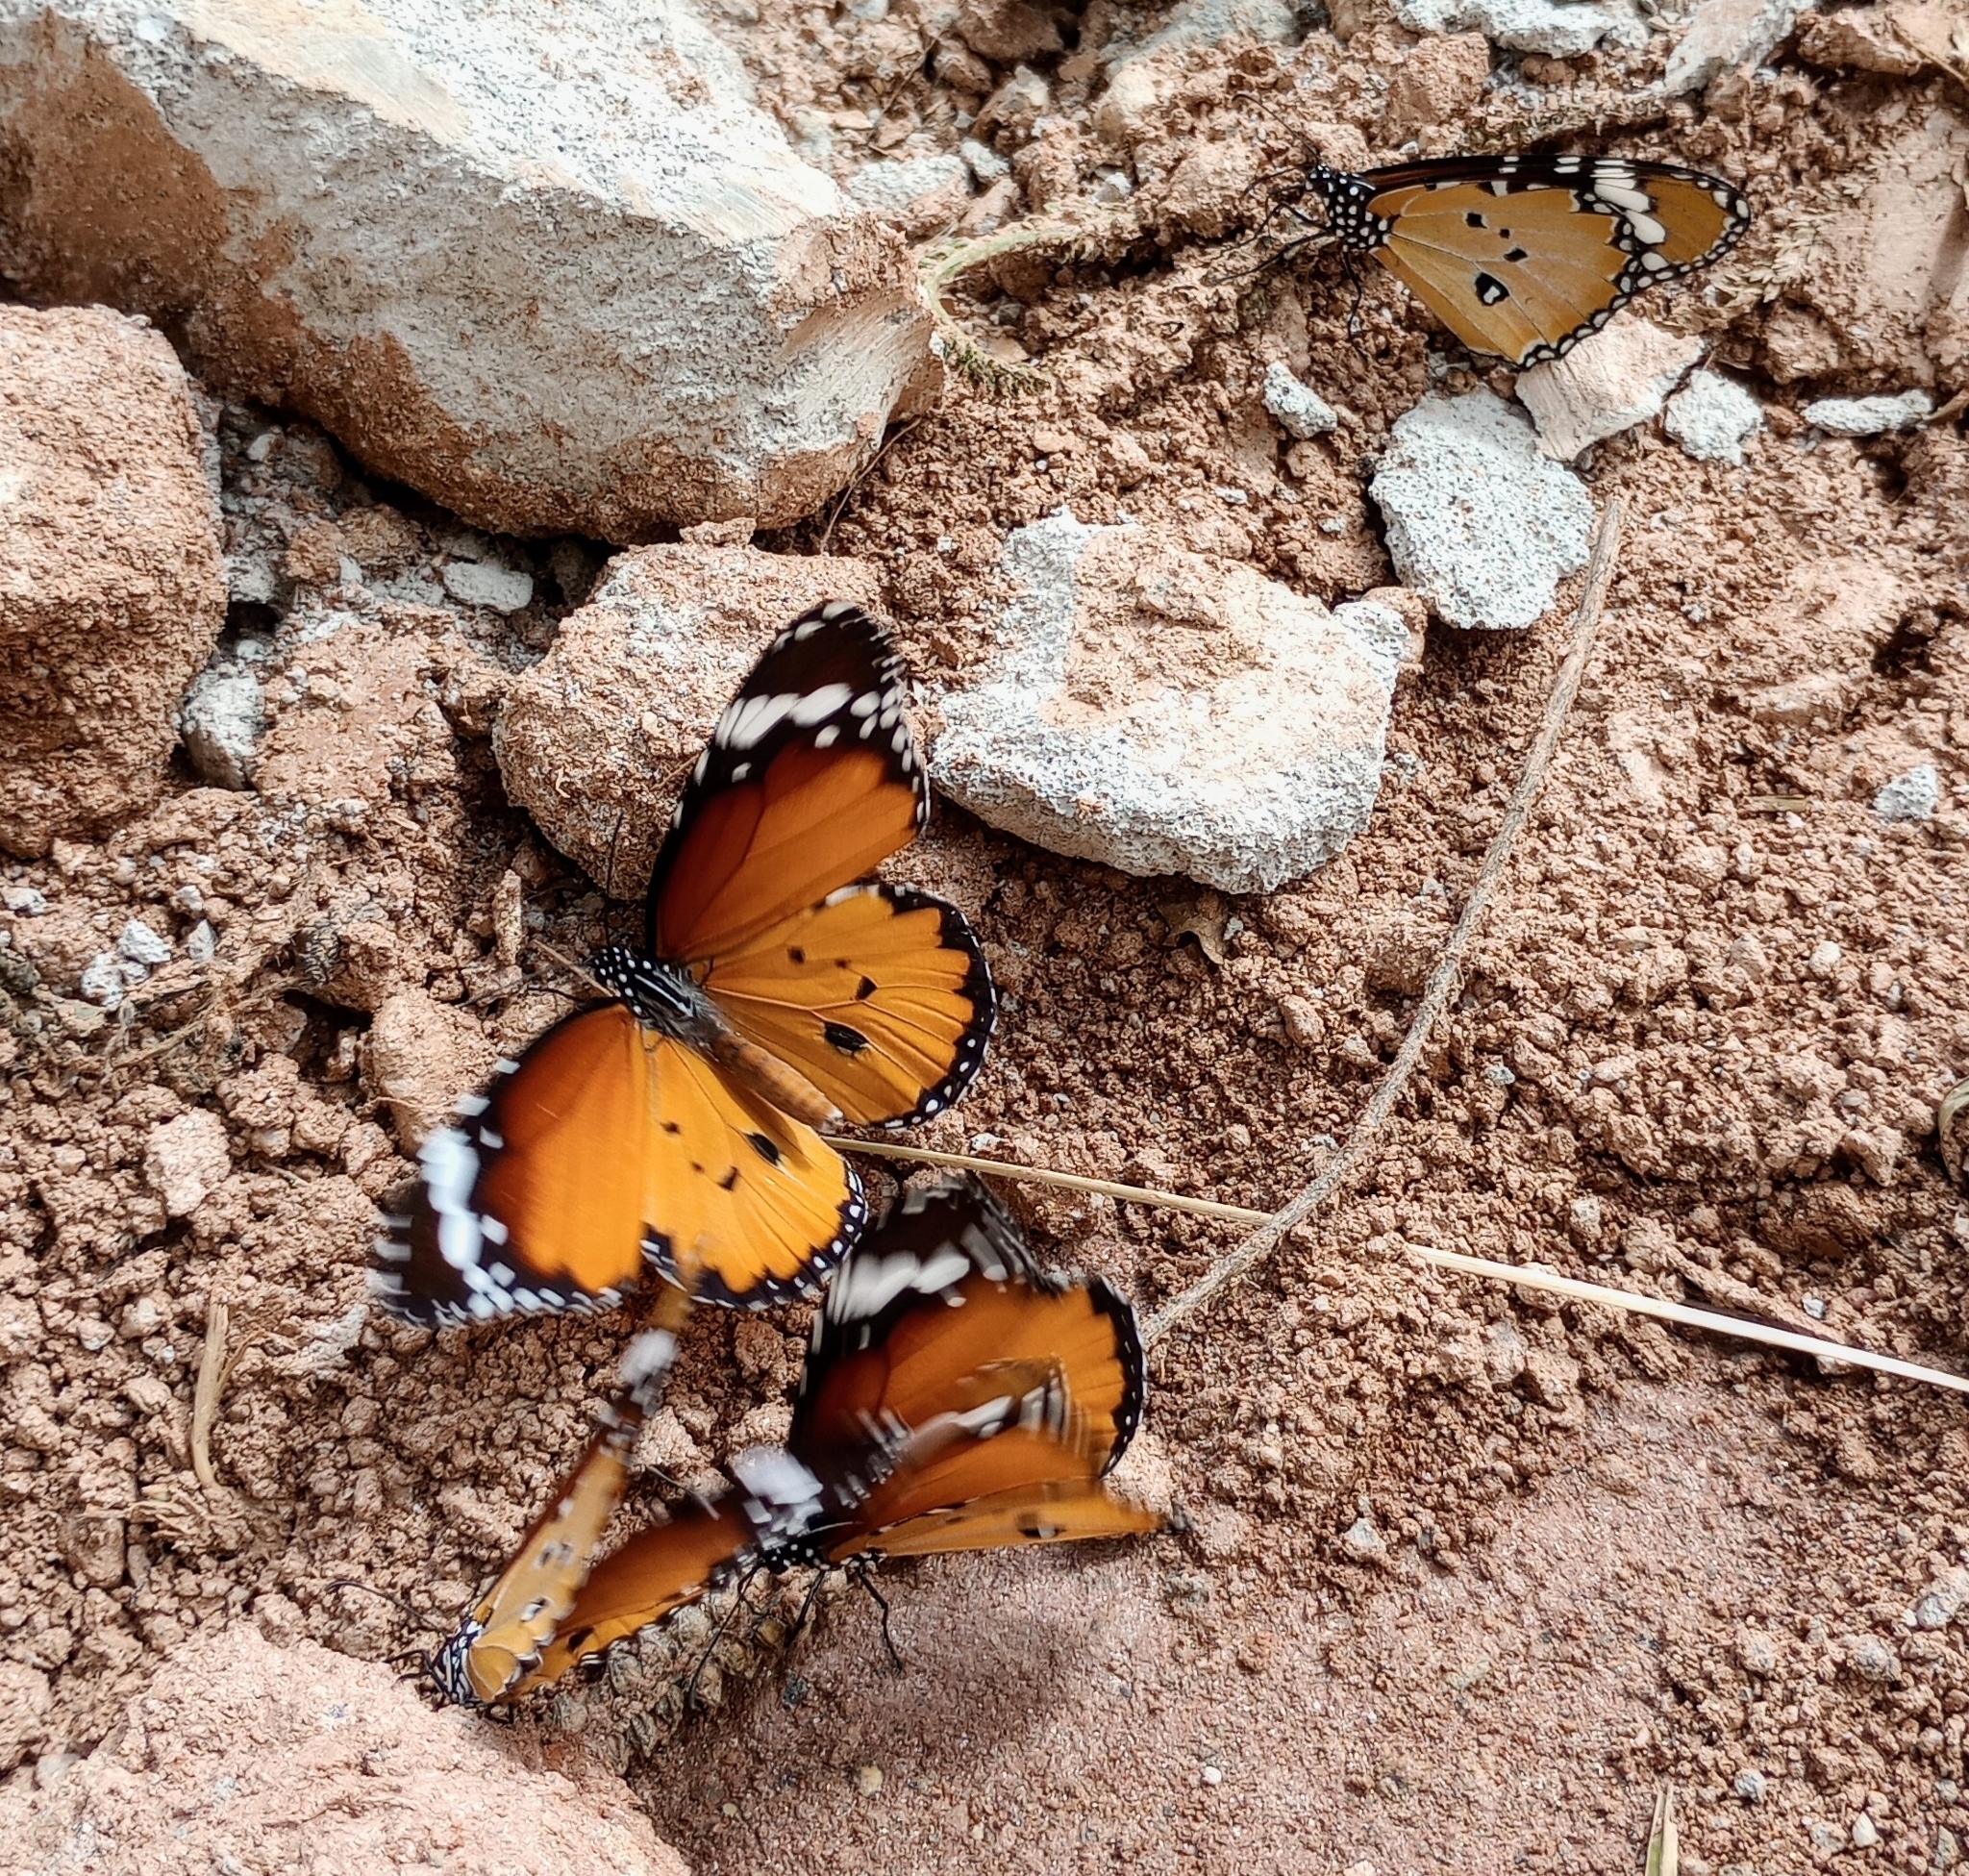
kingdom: Animalia
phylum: Arthropoda
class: Insecta
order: Lepidoptera
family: Nymphalidae
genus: Danaus
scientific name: Danaus chrysippus
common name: Plain tiger
